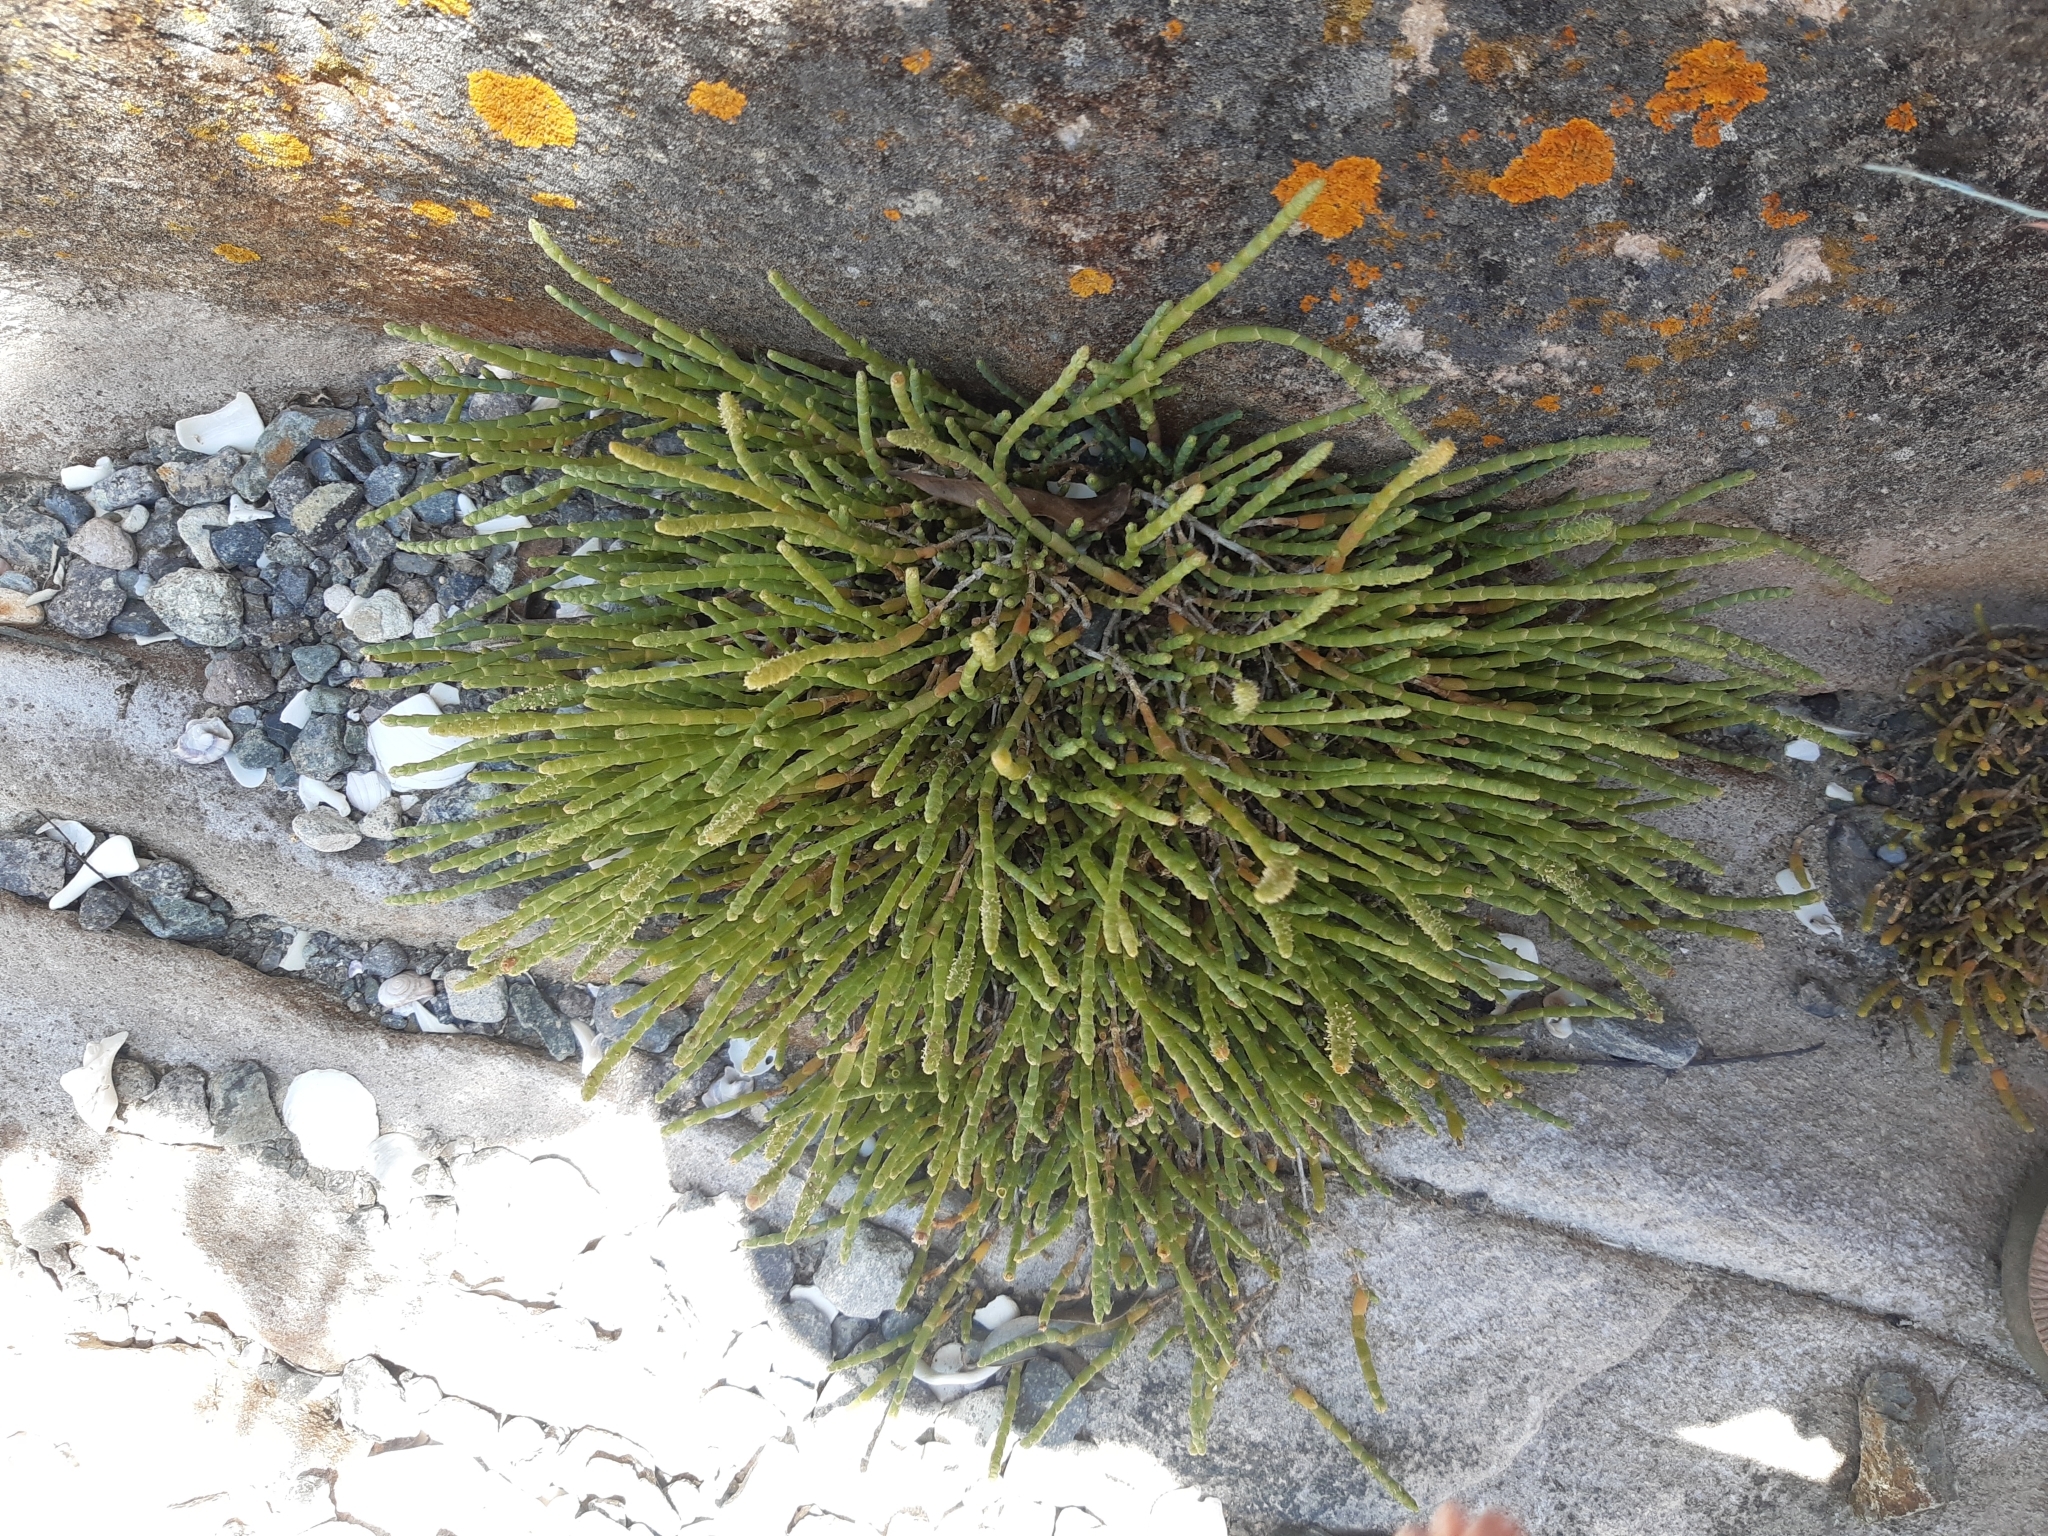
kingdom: Plantae
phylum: Tracheophyta
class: Magnoliopsida
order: Caryophyllales
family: Amaranthaceae
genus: Salicornia
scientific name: Salicornia quinqueflora
